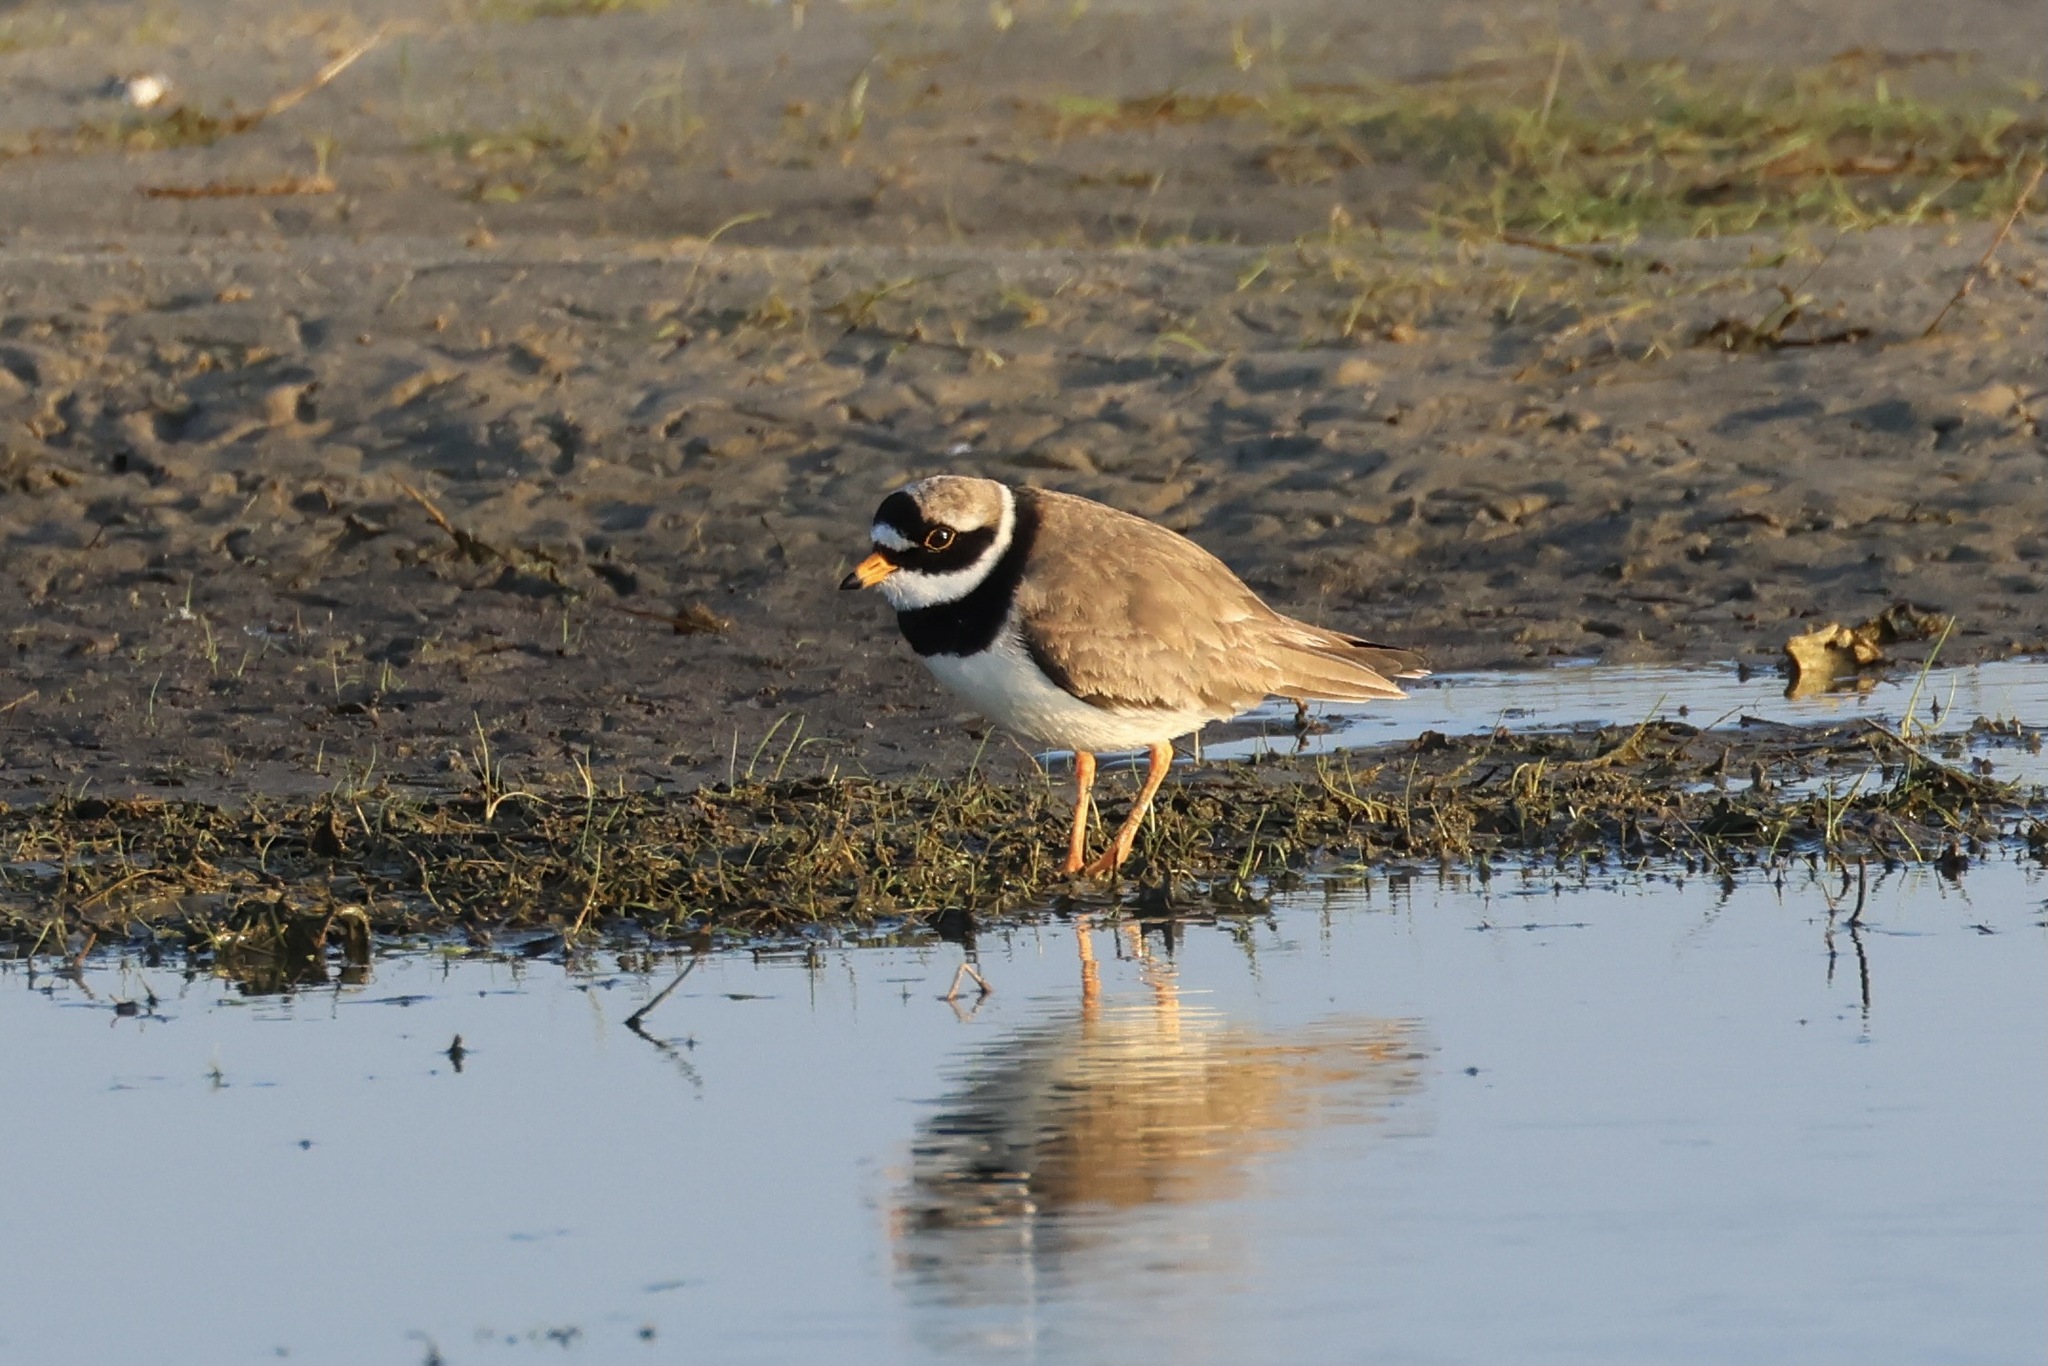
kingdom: Animalia
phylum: Chordata
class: Aves
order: Charadriiformes
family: Charadriidae
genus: Charadrius
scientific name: Charadrius hiaticula
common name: Common ringed plover
